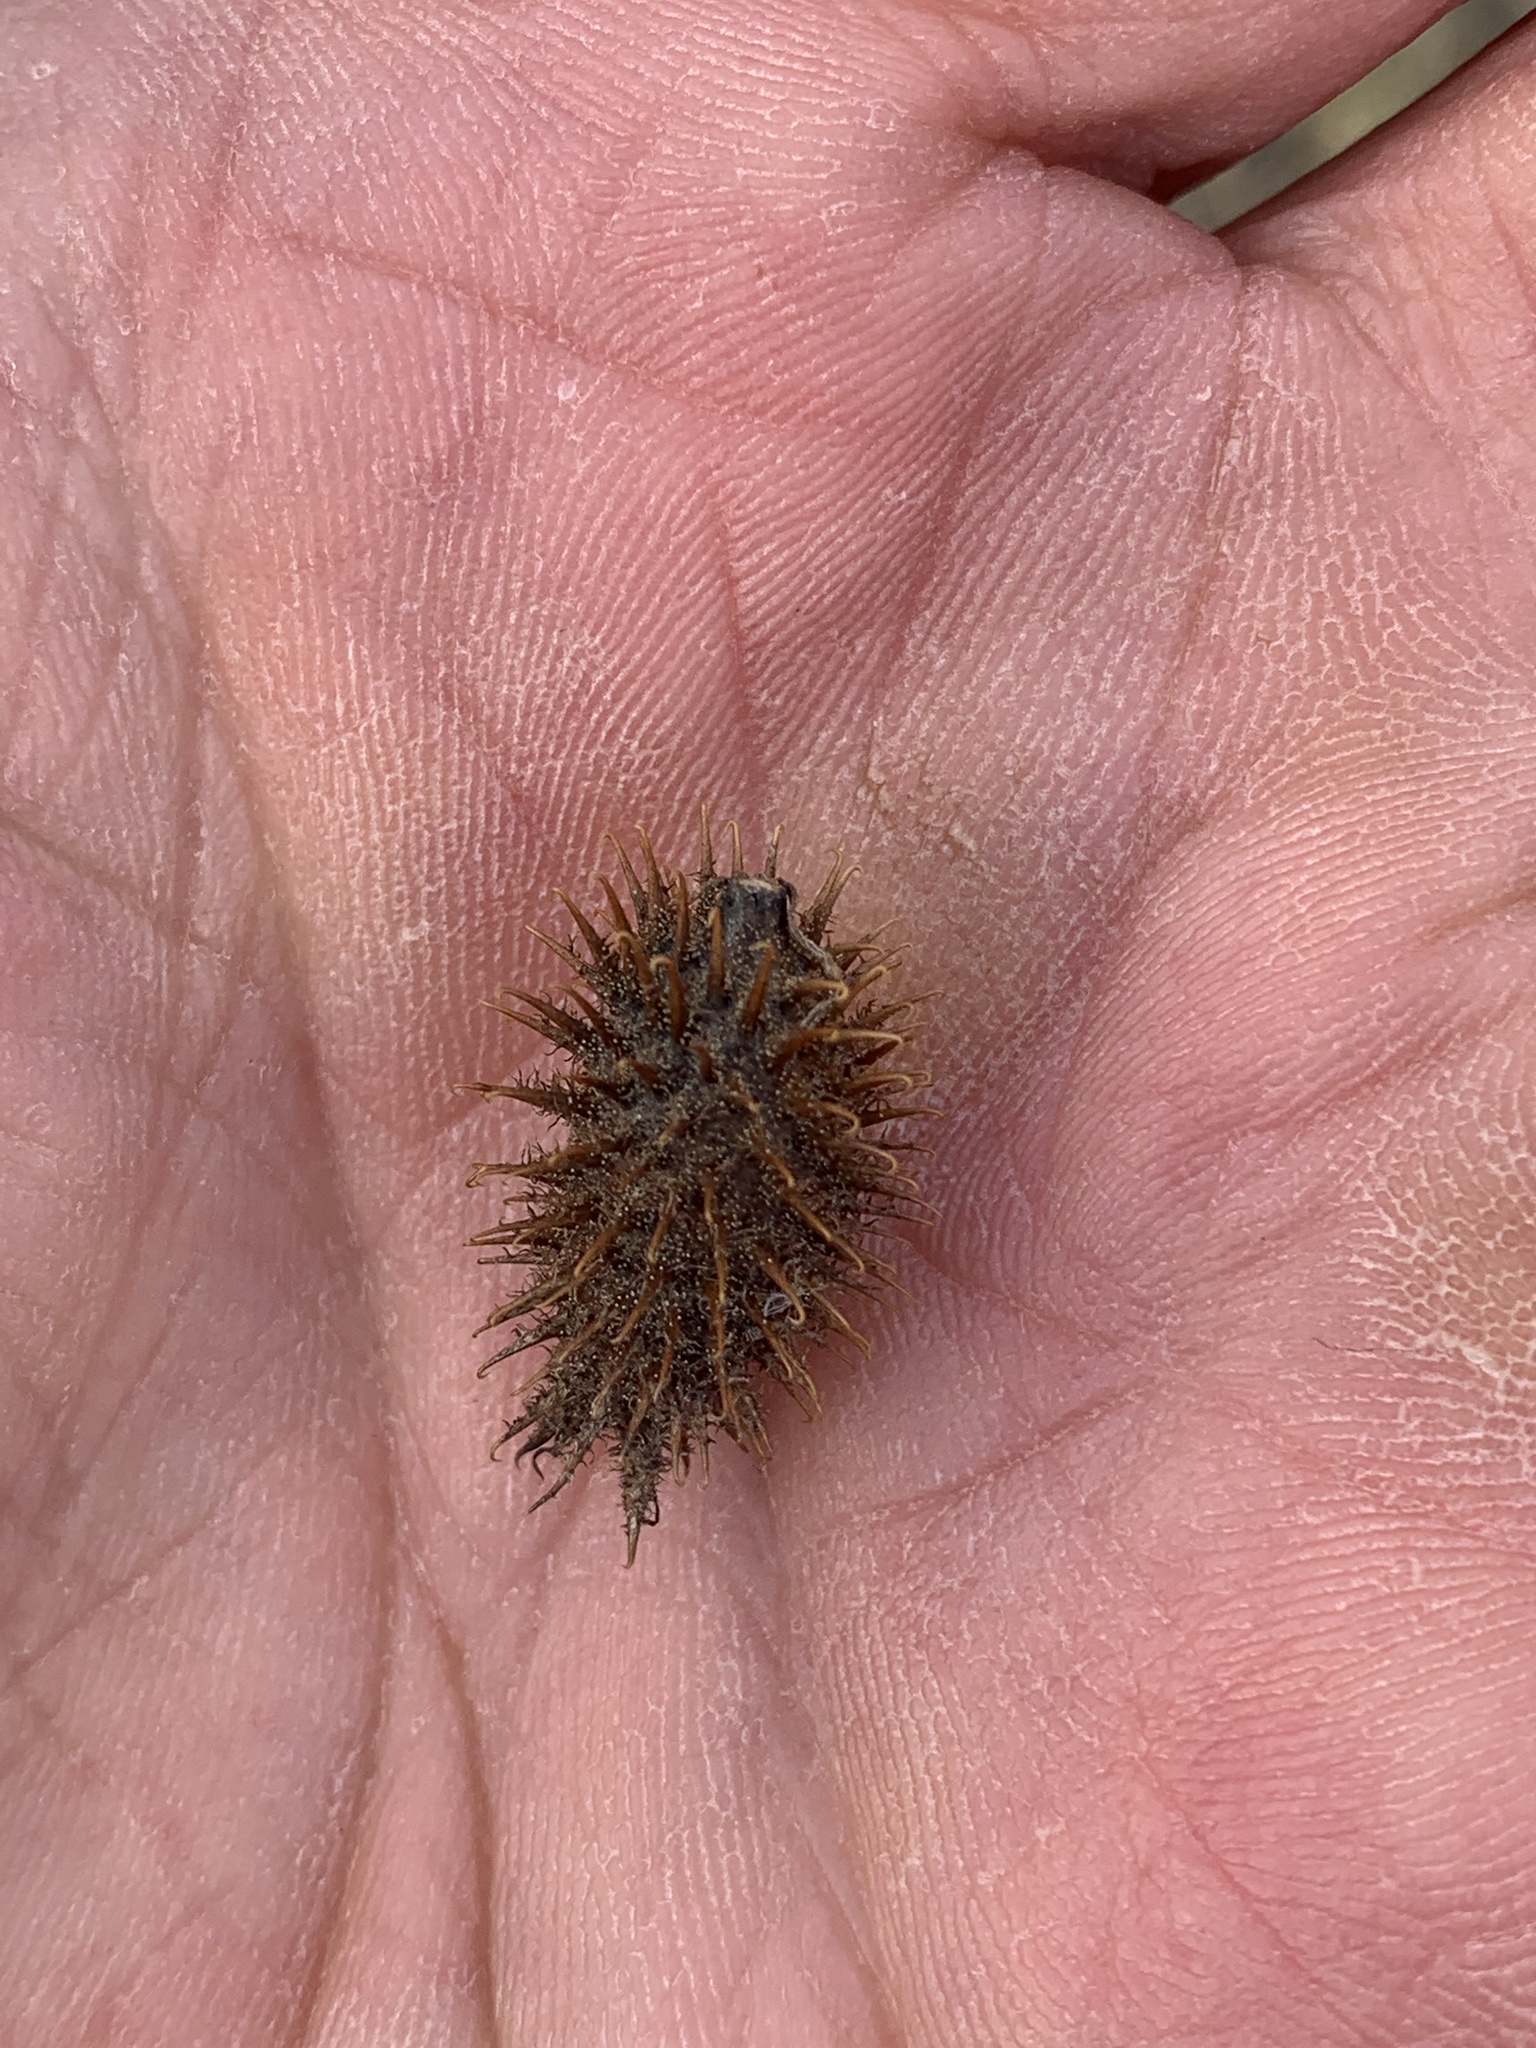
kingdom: Plantae
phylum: Tracheophyta
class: Magnoliopsida
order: Asterales
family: Asteraceae
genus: Xanthium
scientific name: Xanthium strumarium
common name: Rough cocklebur
